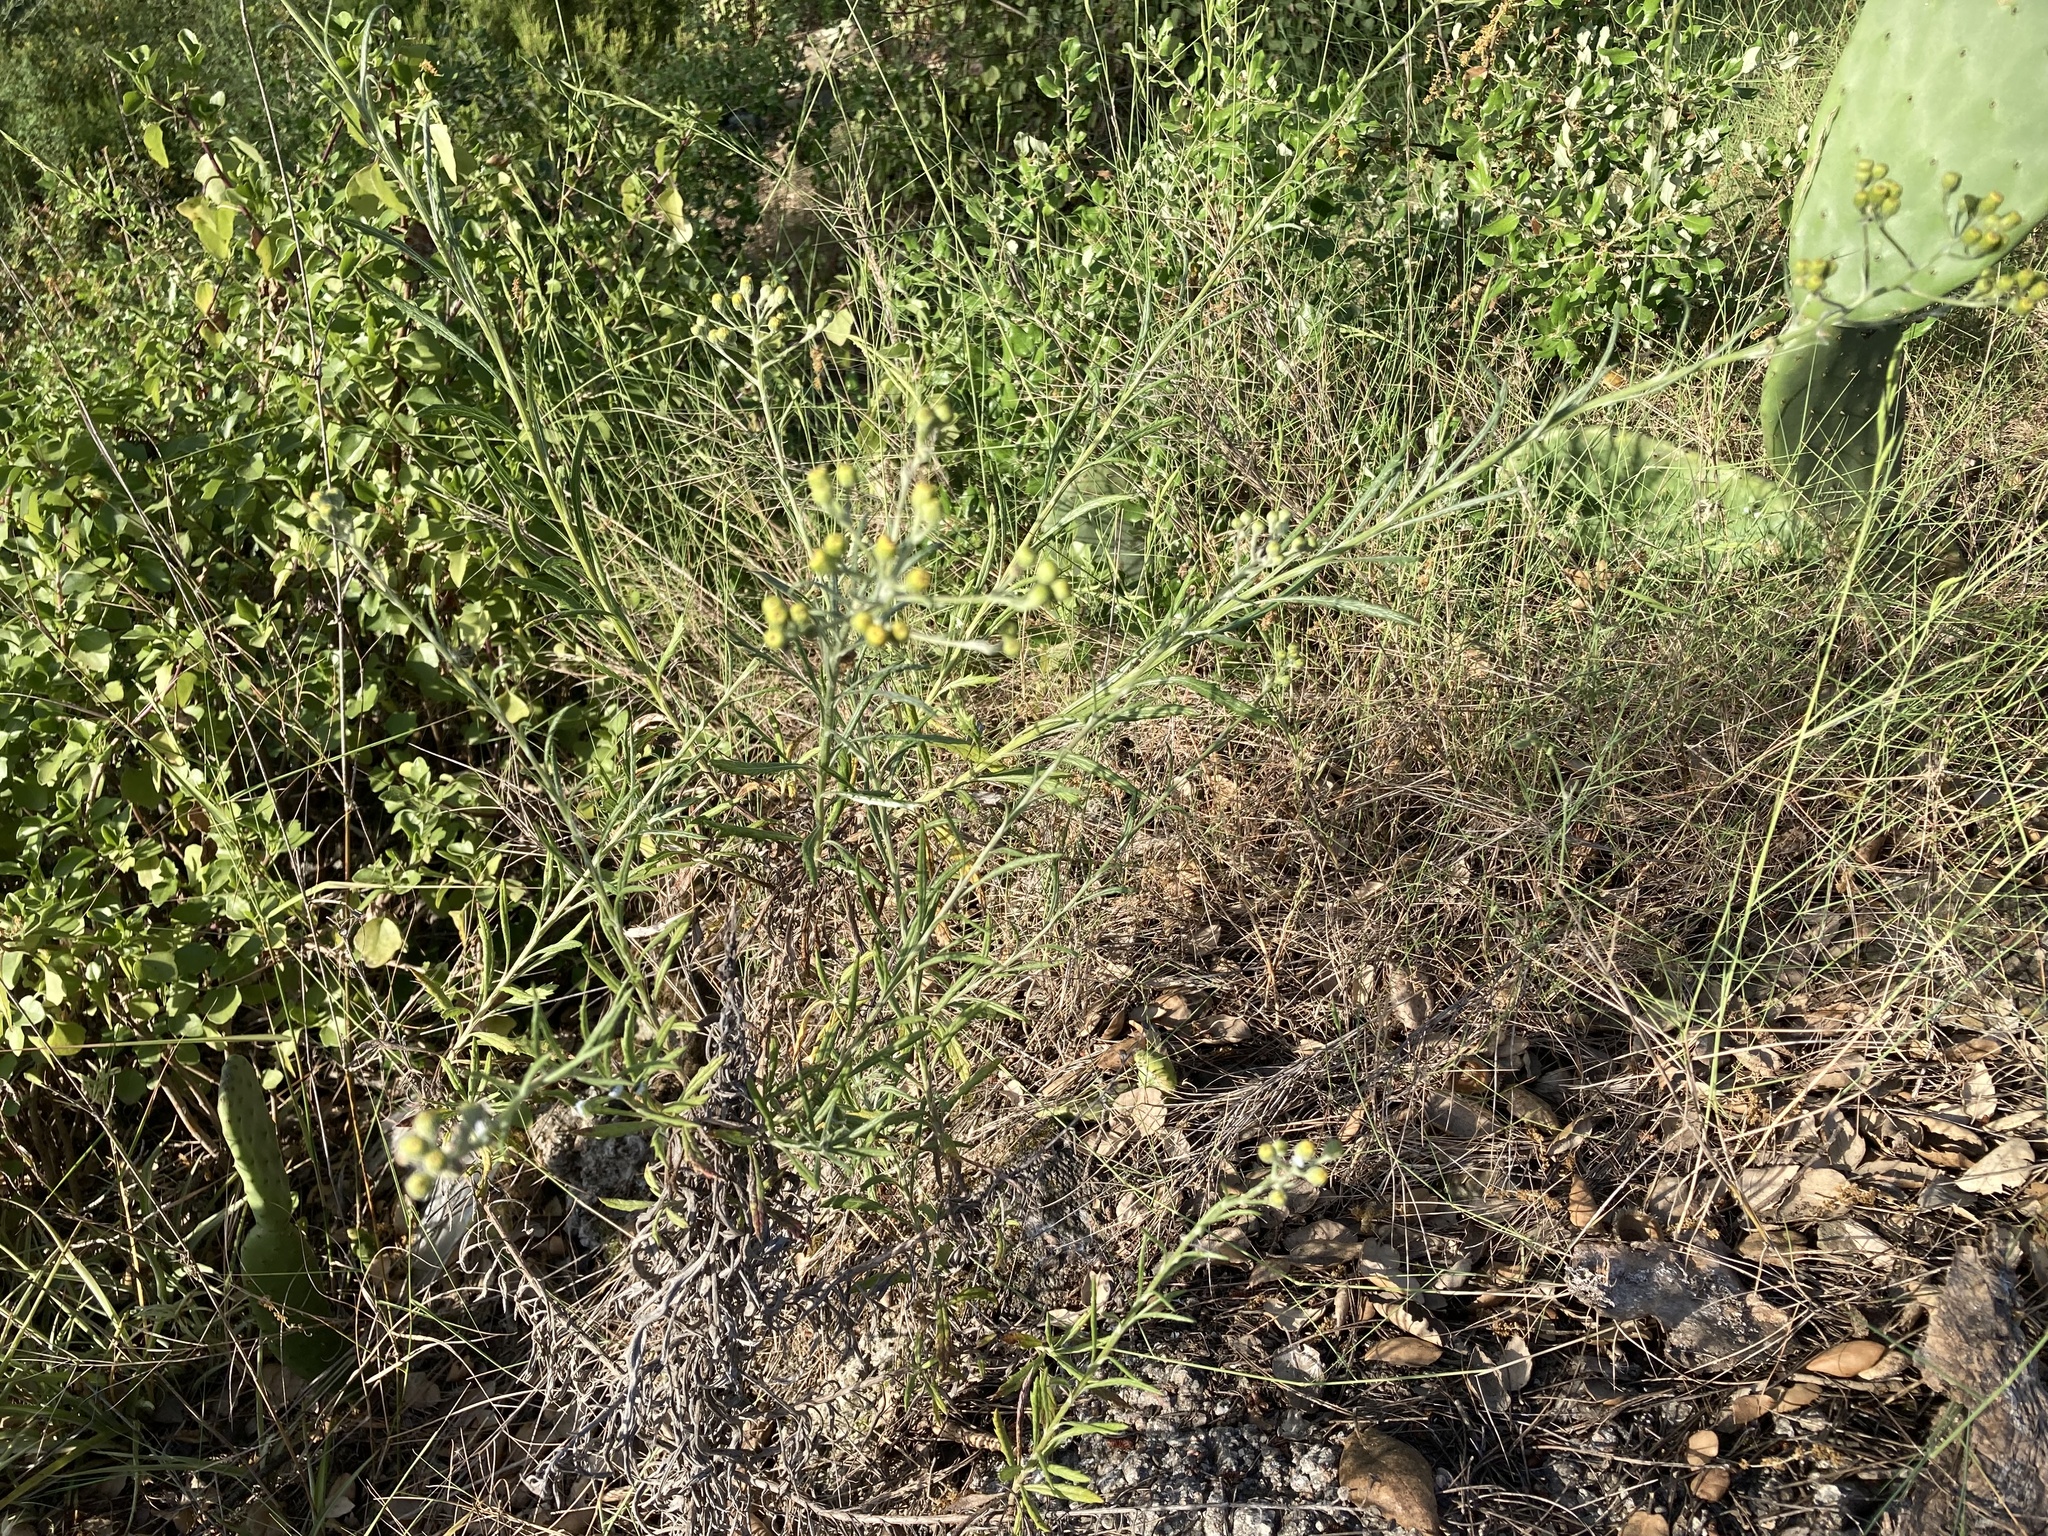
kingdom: Plantae
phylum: Tracheophyta
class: Magnoliopsida
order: Asterales
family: Asteraceae
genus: Senecio
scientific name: Senecio pterophorus
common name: Shoddy ragwort
